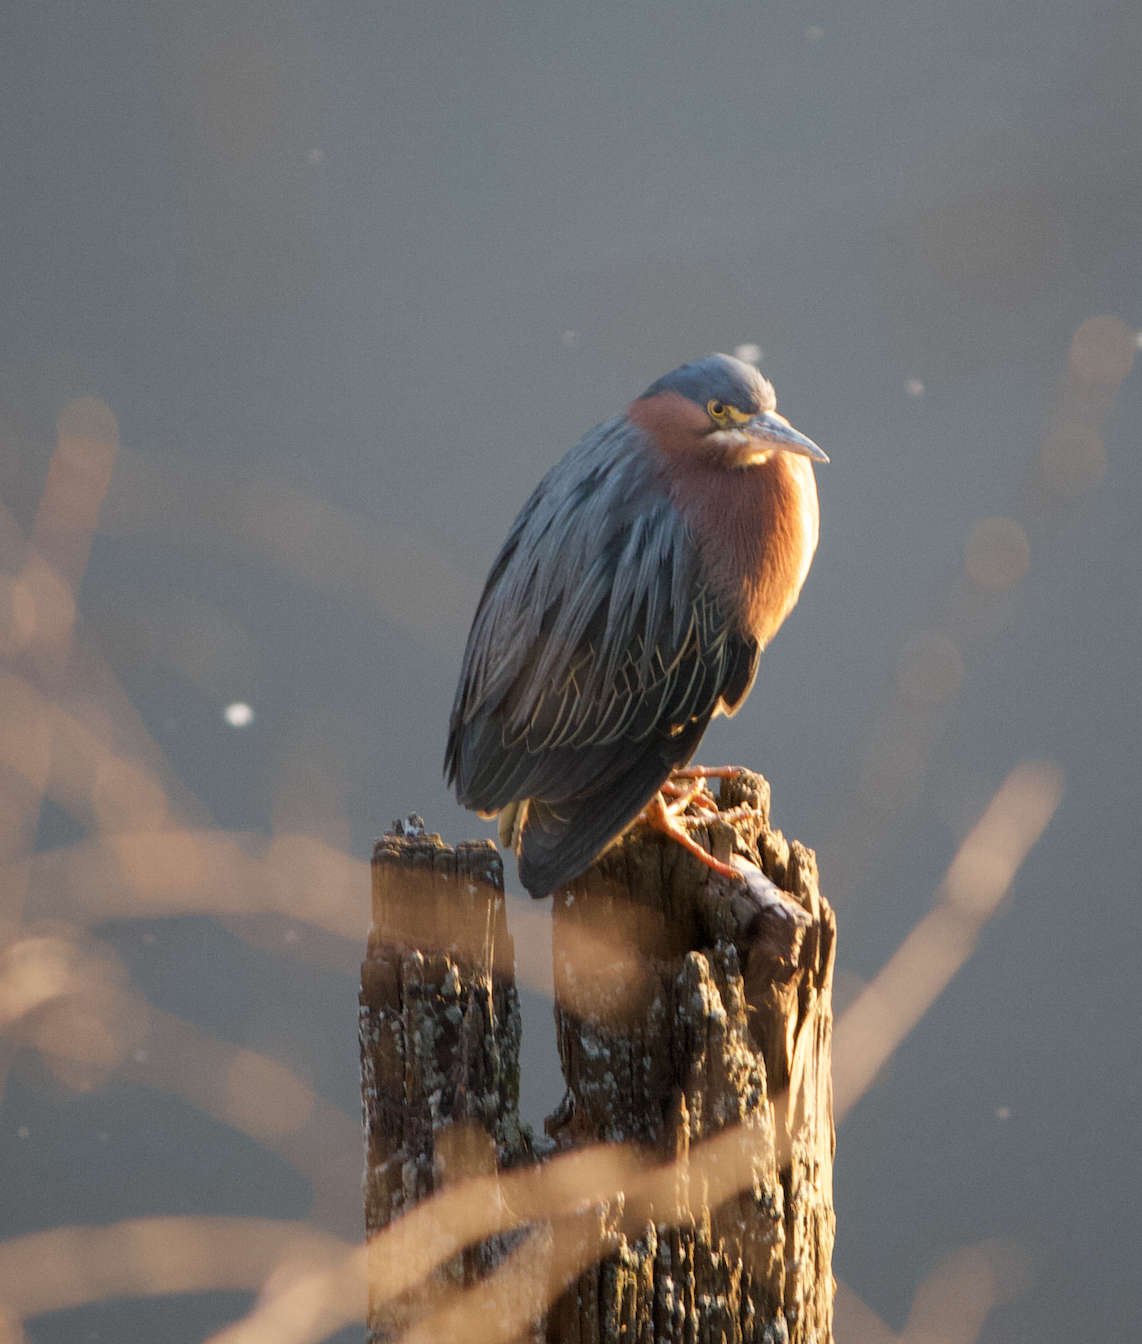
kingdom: Animalia
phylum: Chordata
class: Aves
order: Pelecaniformes
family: Ardeidae
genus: Butorides
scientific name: Butorides virescens
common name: Green heron
